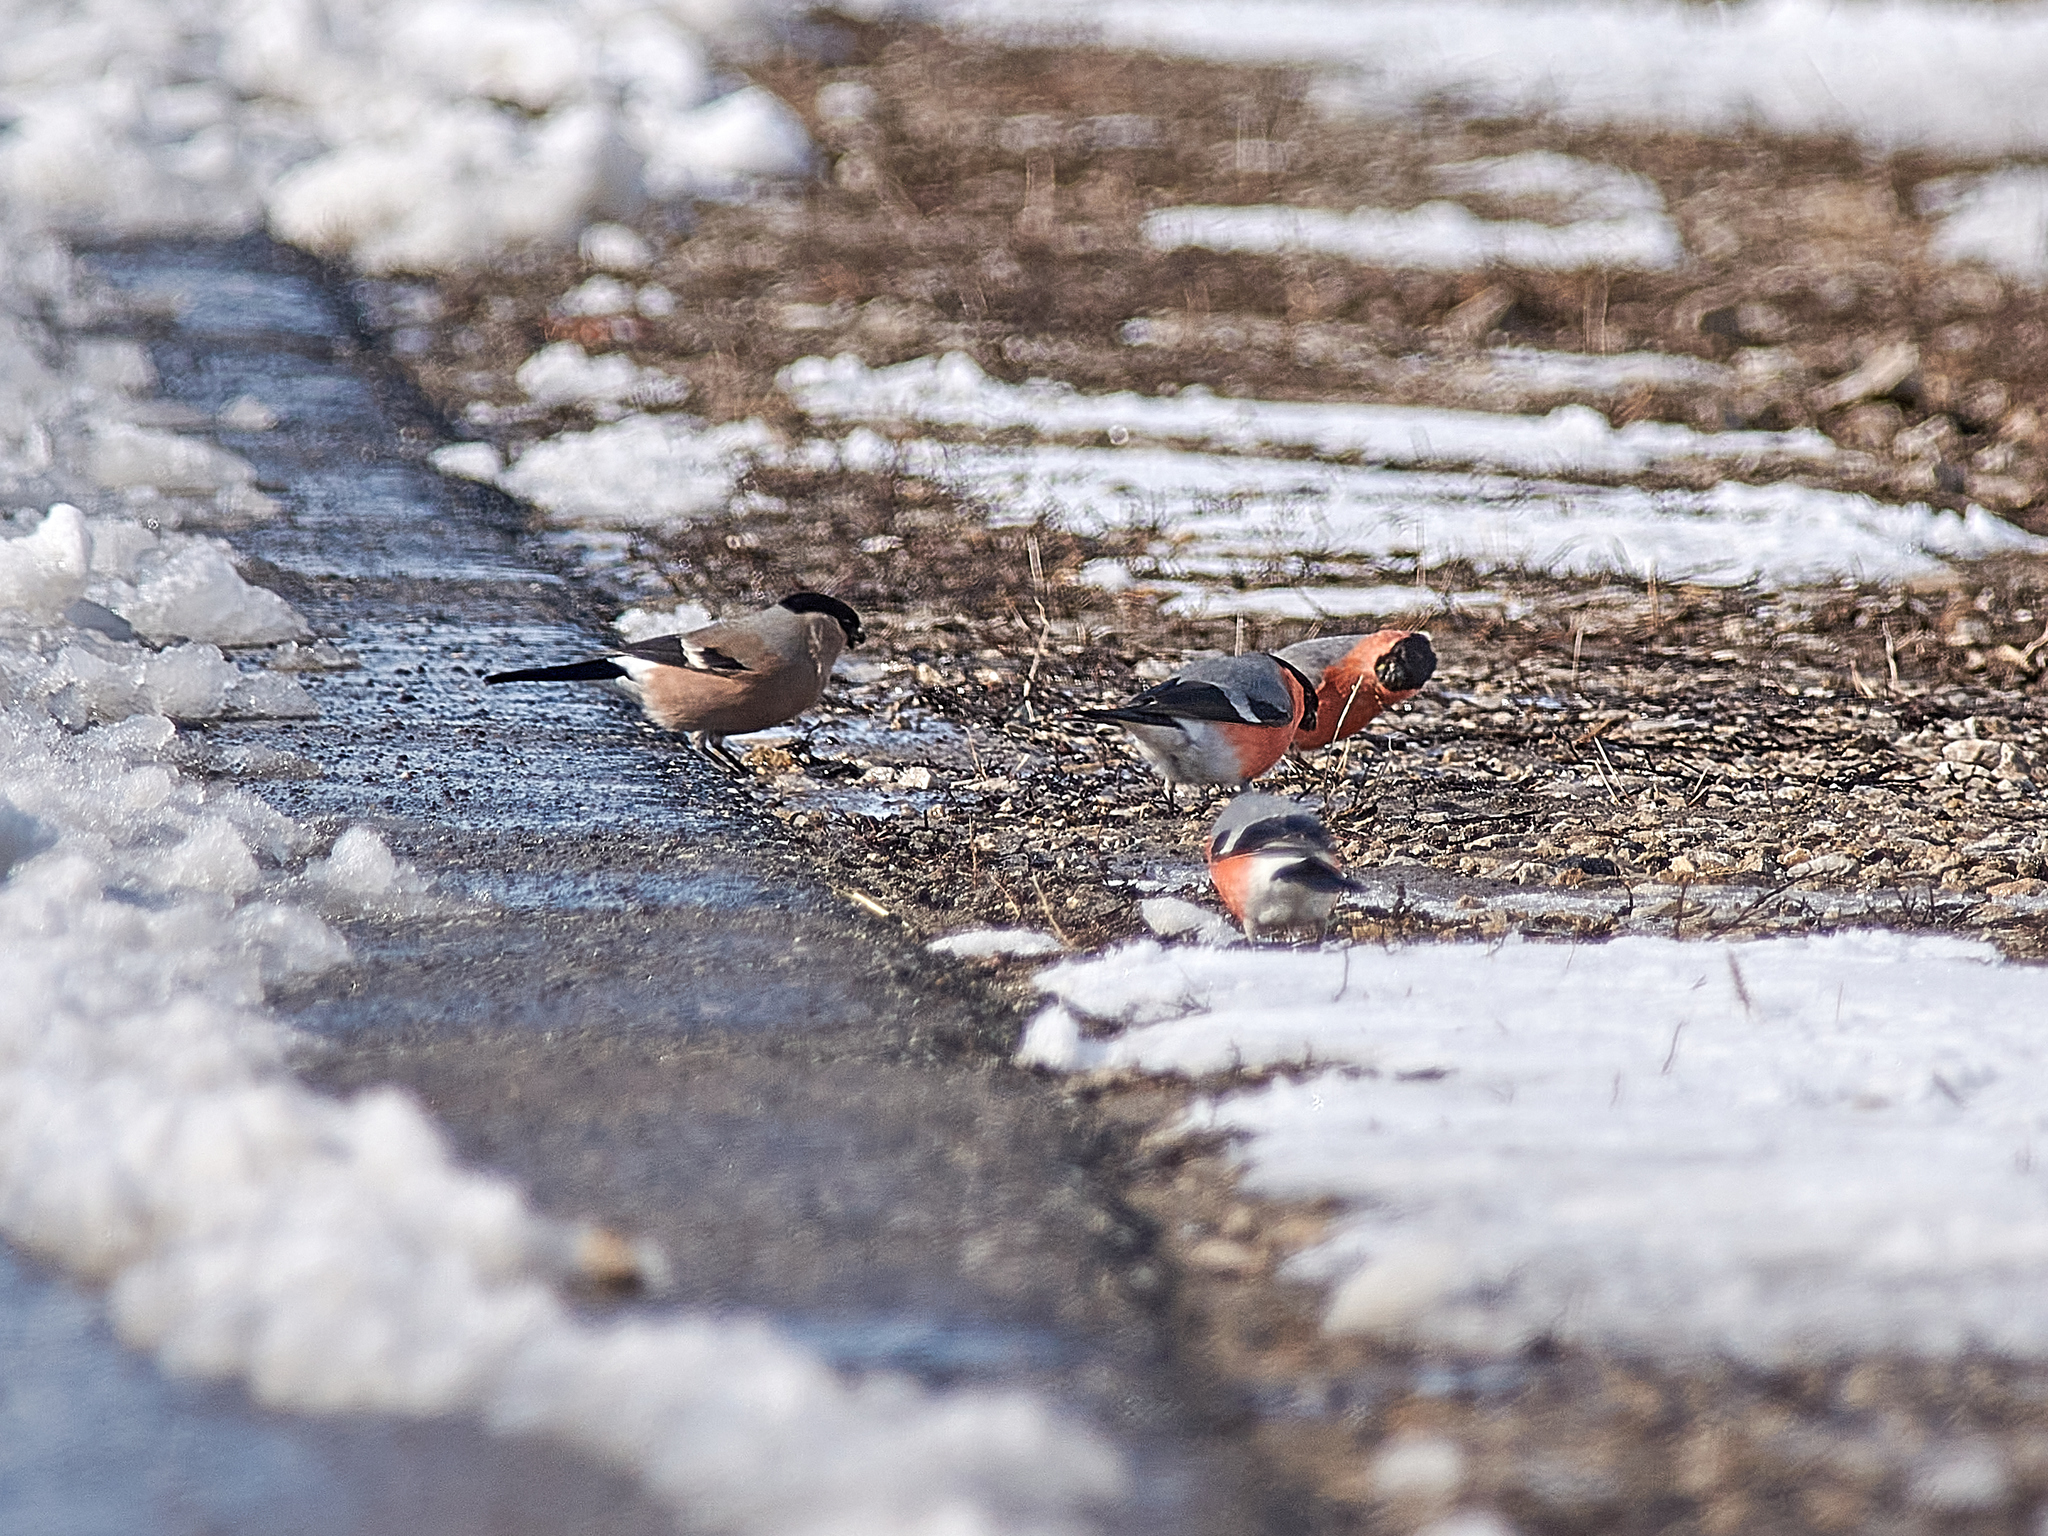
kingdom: Animalia
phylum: Chordata
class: Aves
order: Passeriformes
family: Fringillidae
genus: Pyrrhula
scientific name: Pyrrhula pyrrhula
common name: Eurasian bullfinch
